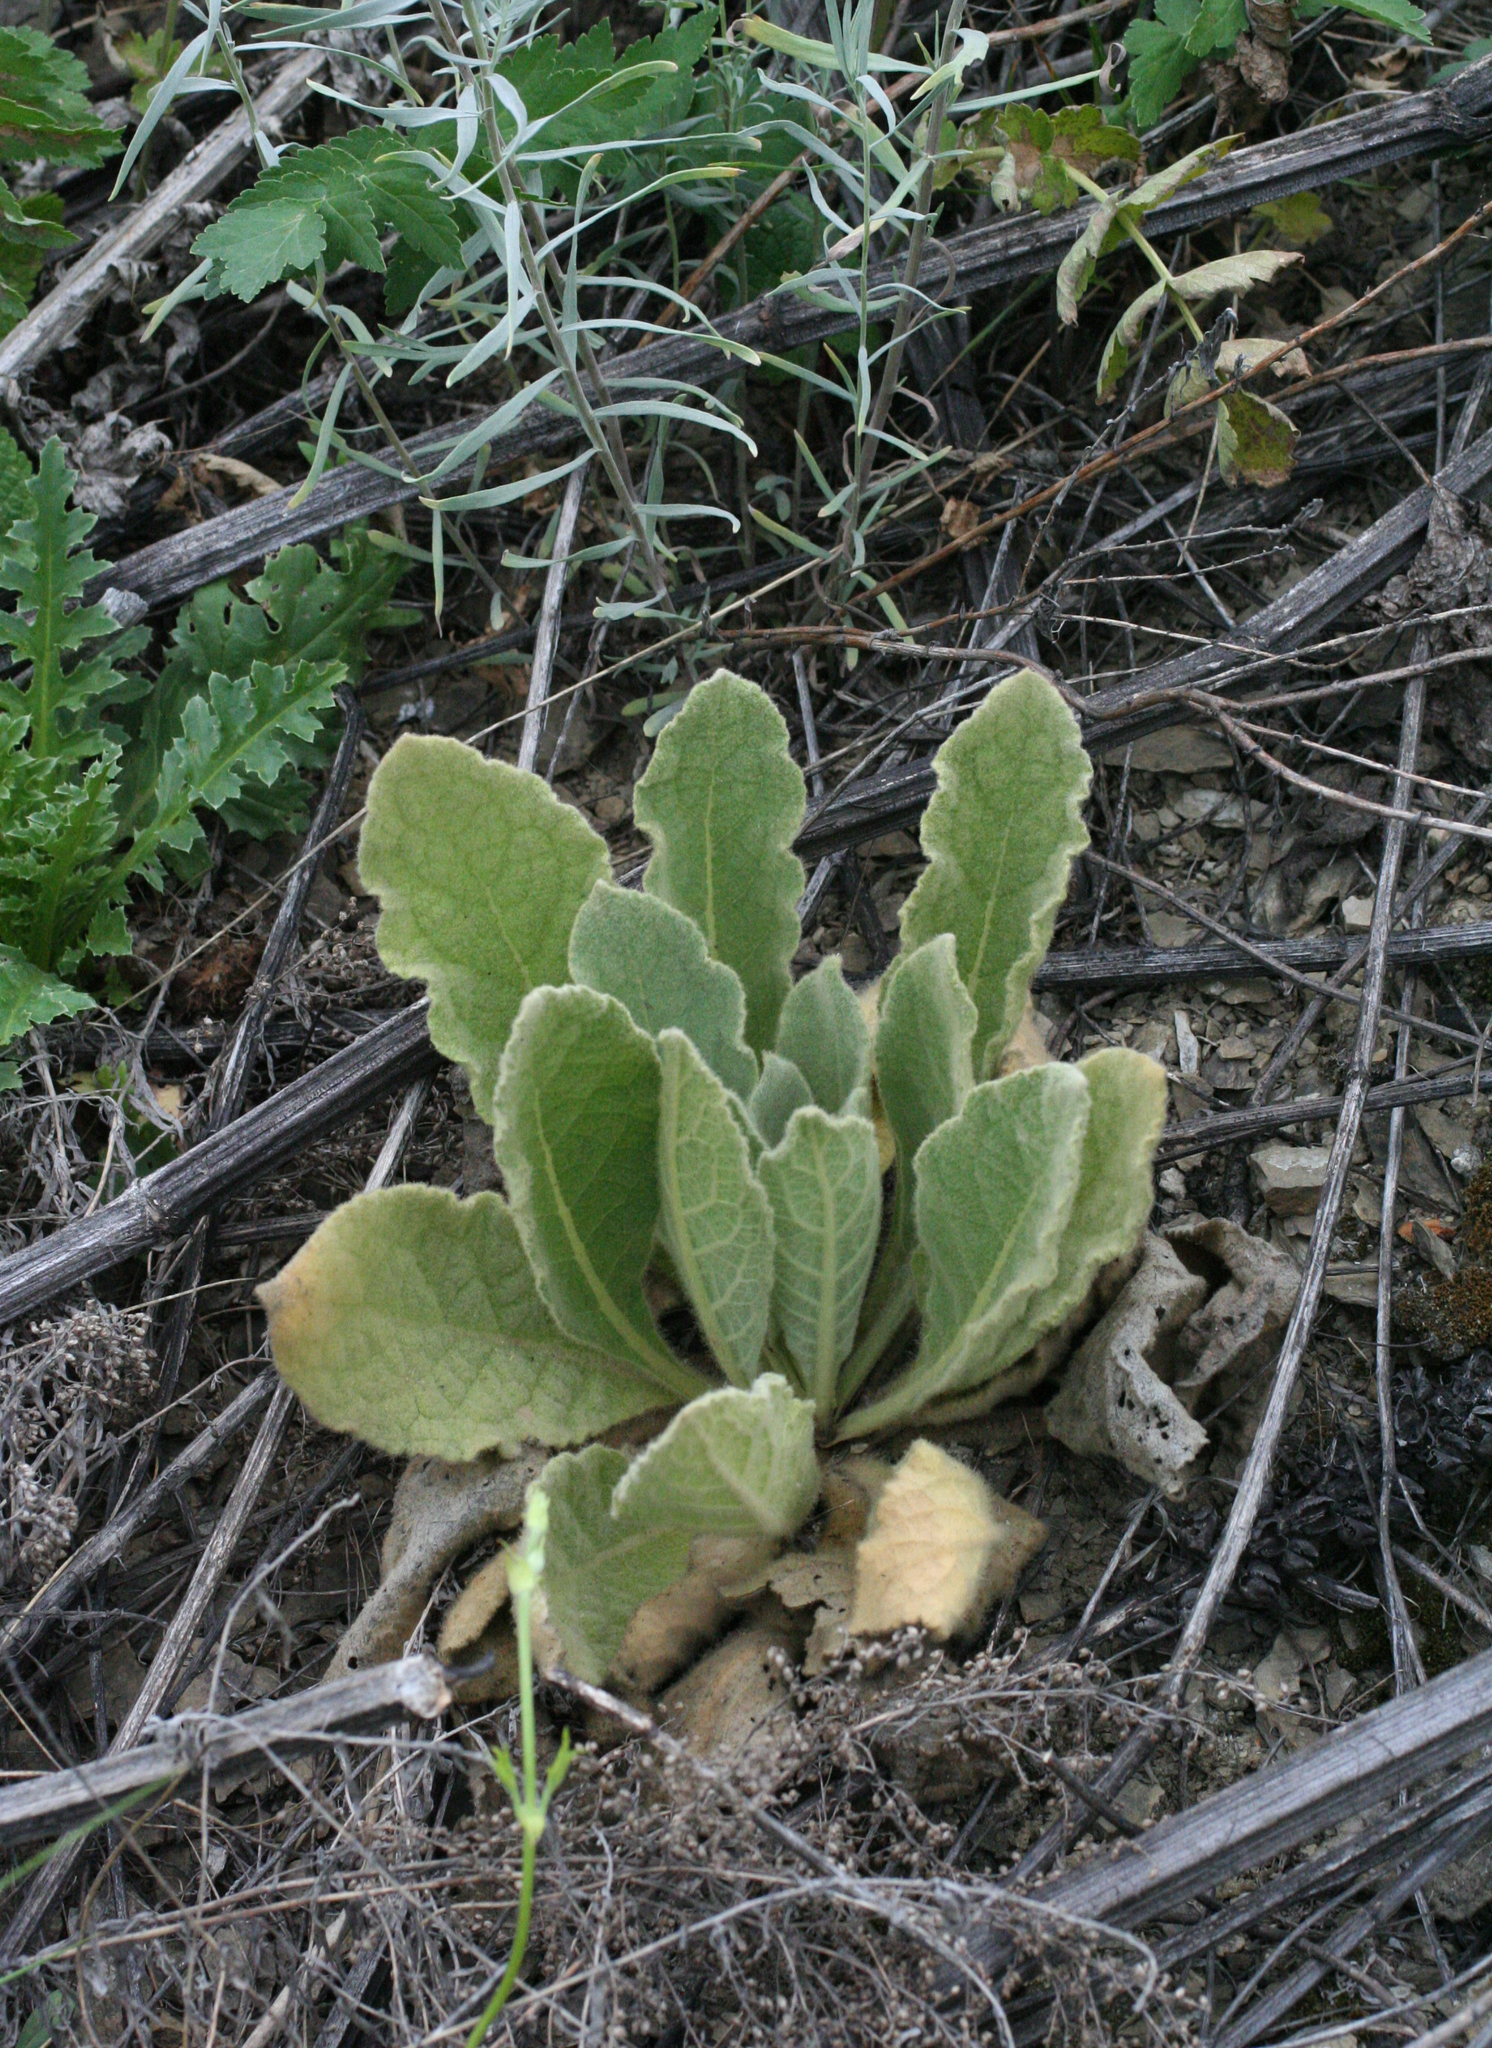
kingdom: Plantae
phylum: Tracheophyta
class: Magnoliopsida
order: Lamiales
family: Scrophulariaceae
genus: Verbascum
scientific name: Verbascum thapsus
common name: Common mullein
